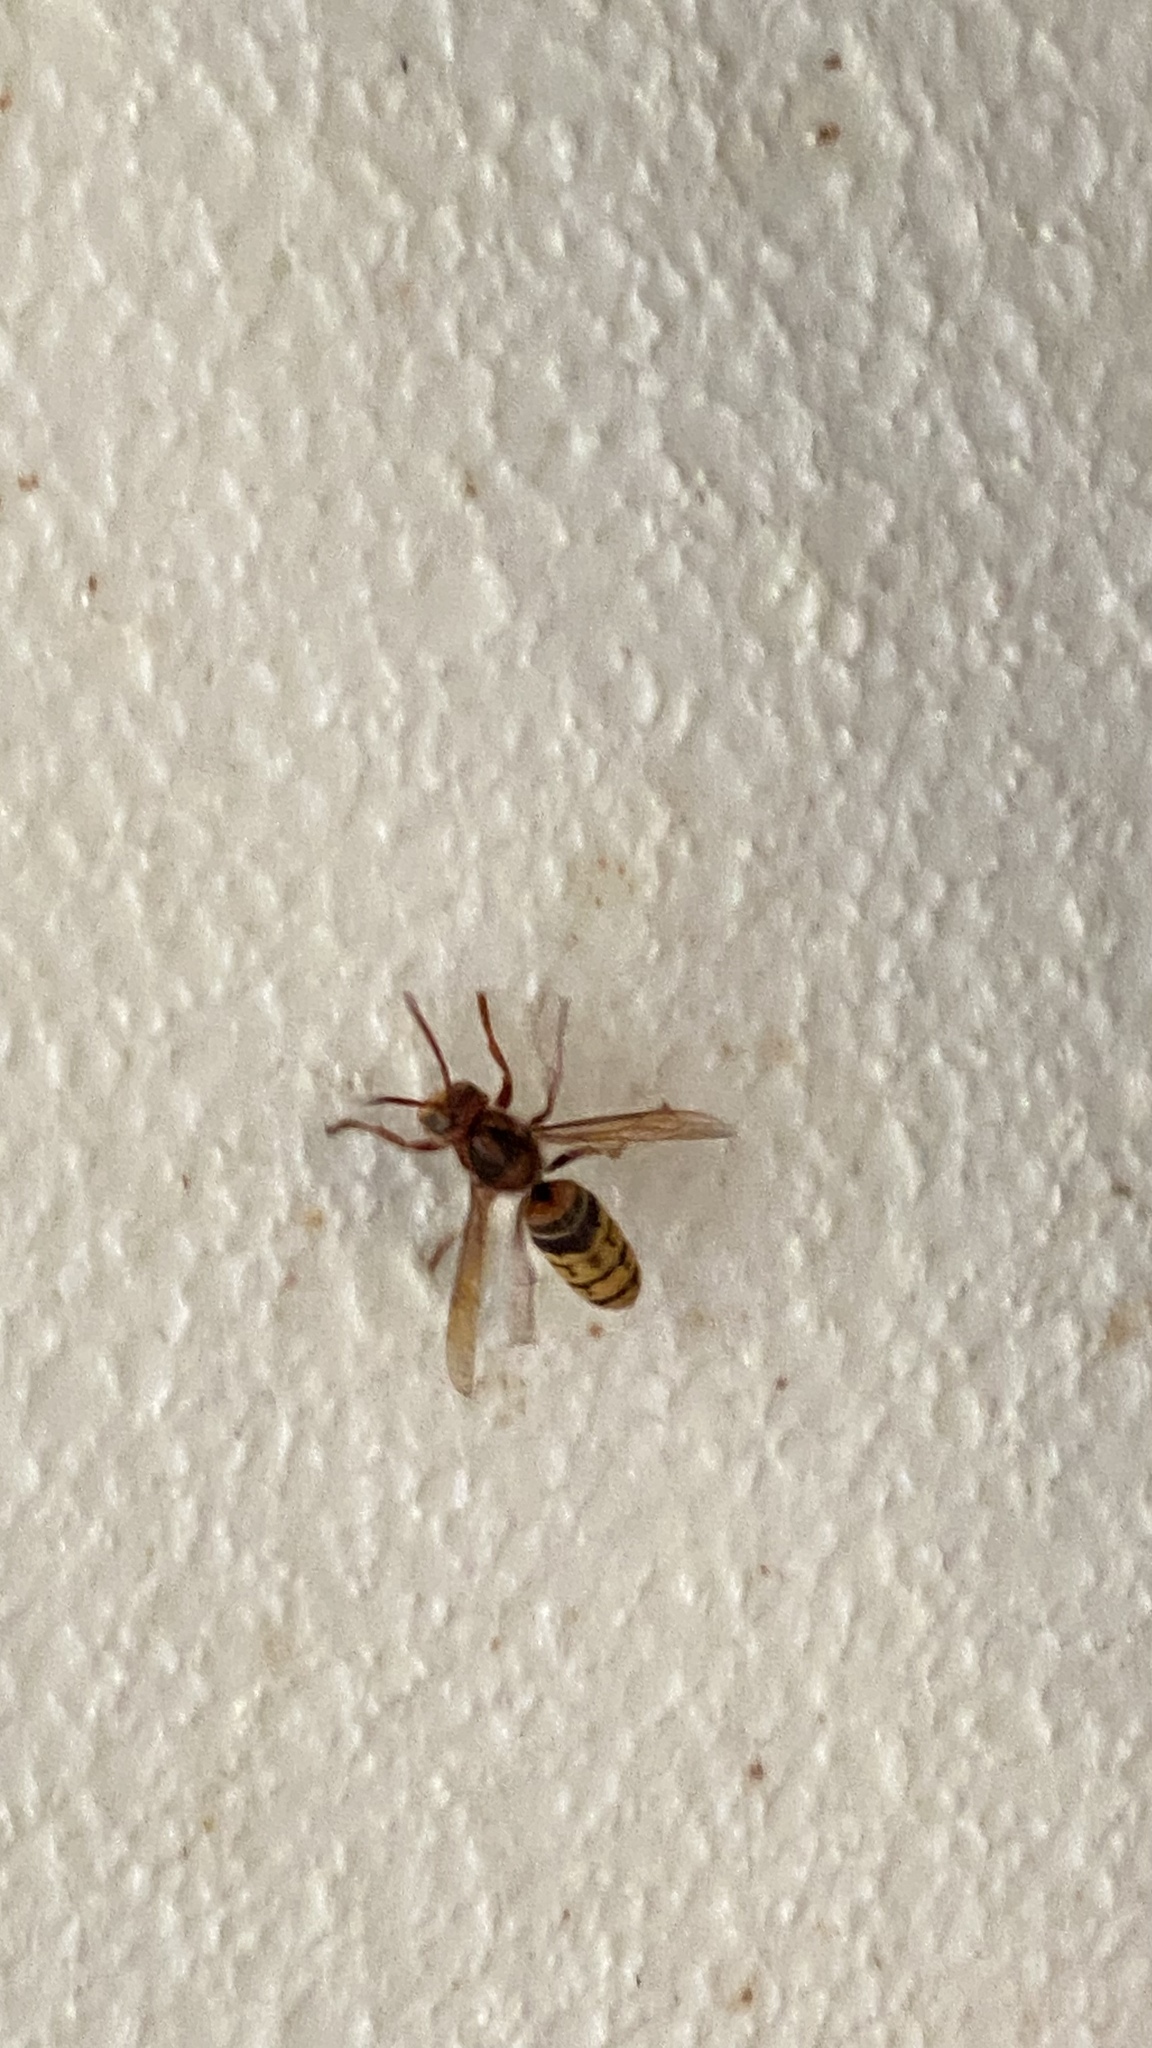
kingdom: Animalia
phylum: Arthropoda
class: Insecta
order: Hymenoptera
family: Vespidae
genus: Vespa
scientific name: Vespa crabro
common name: Hornet
